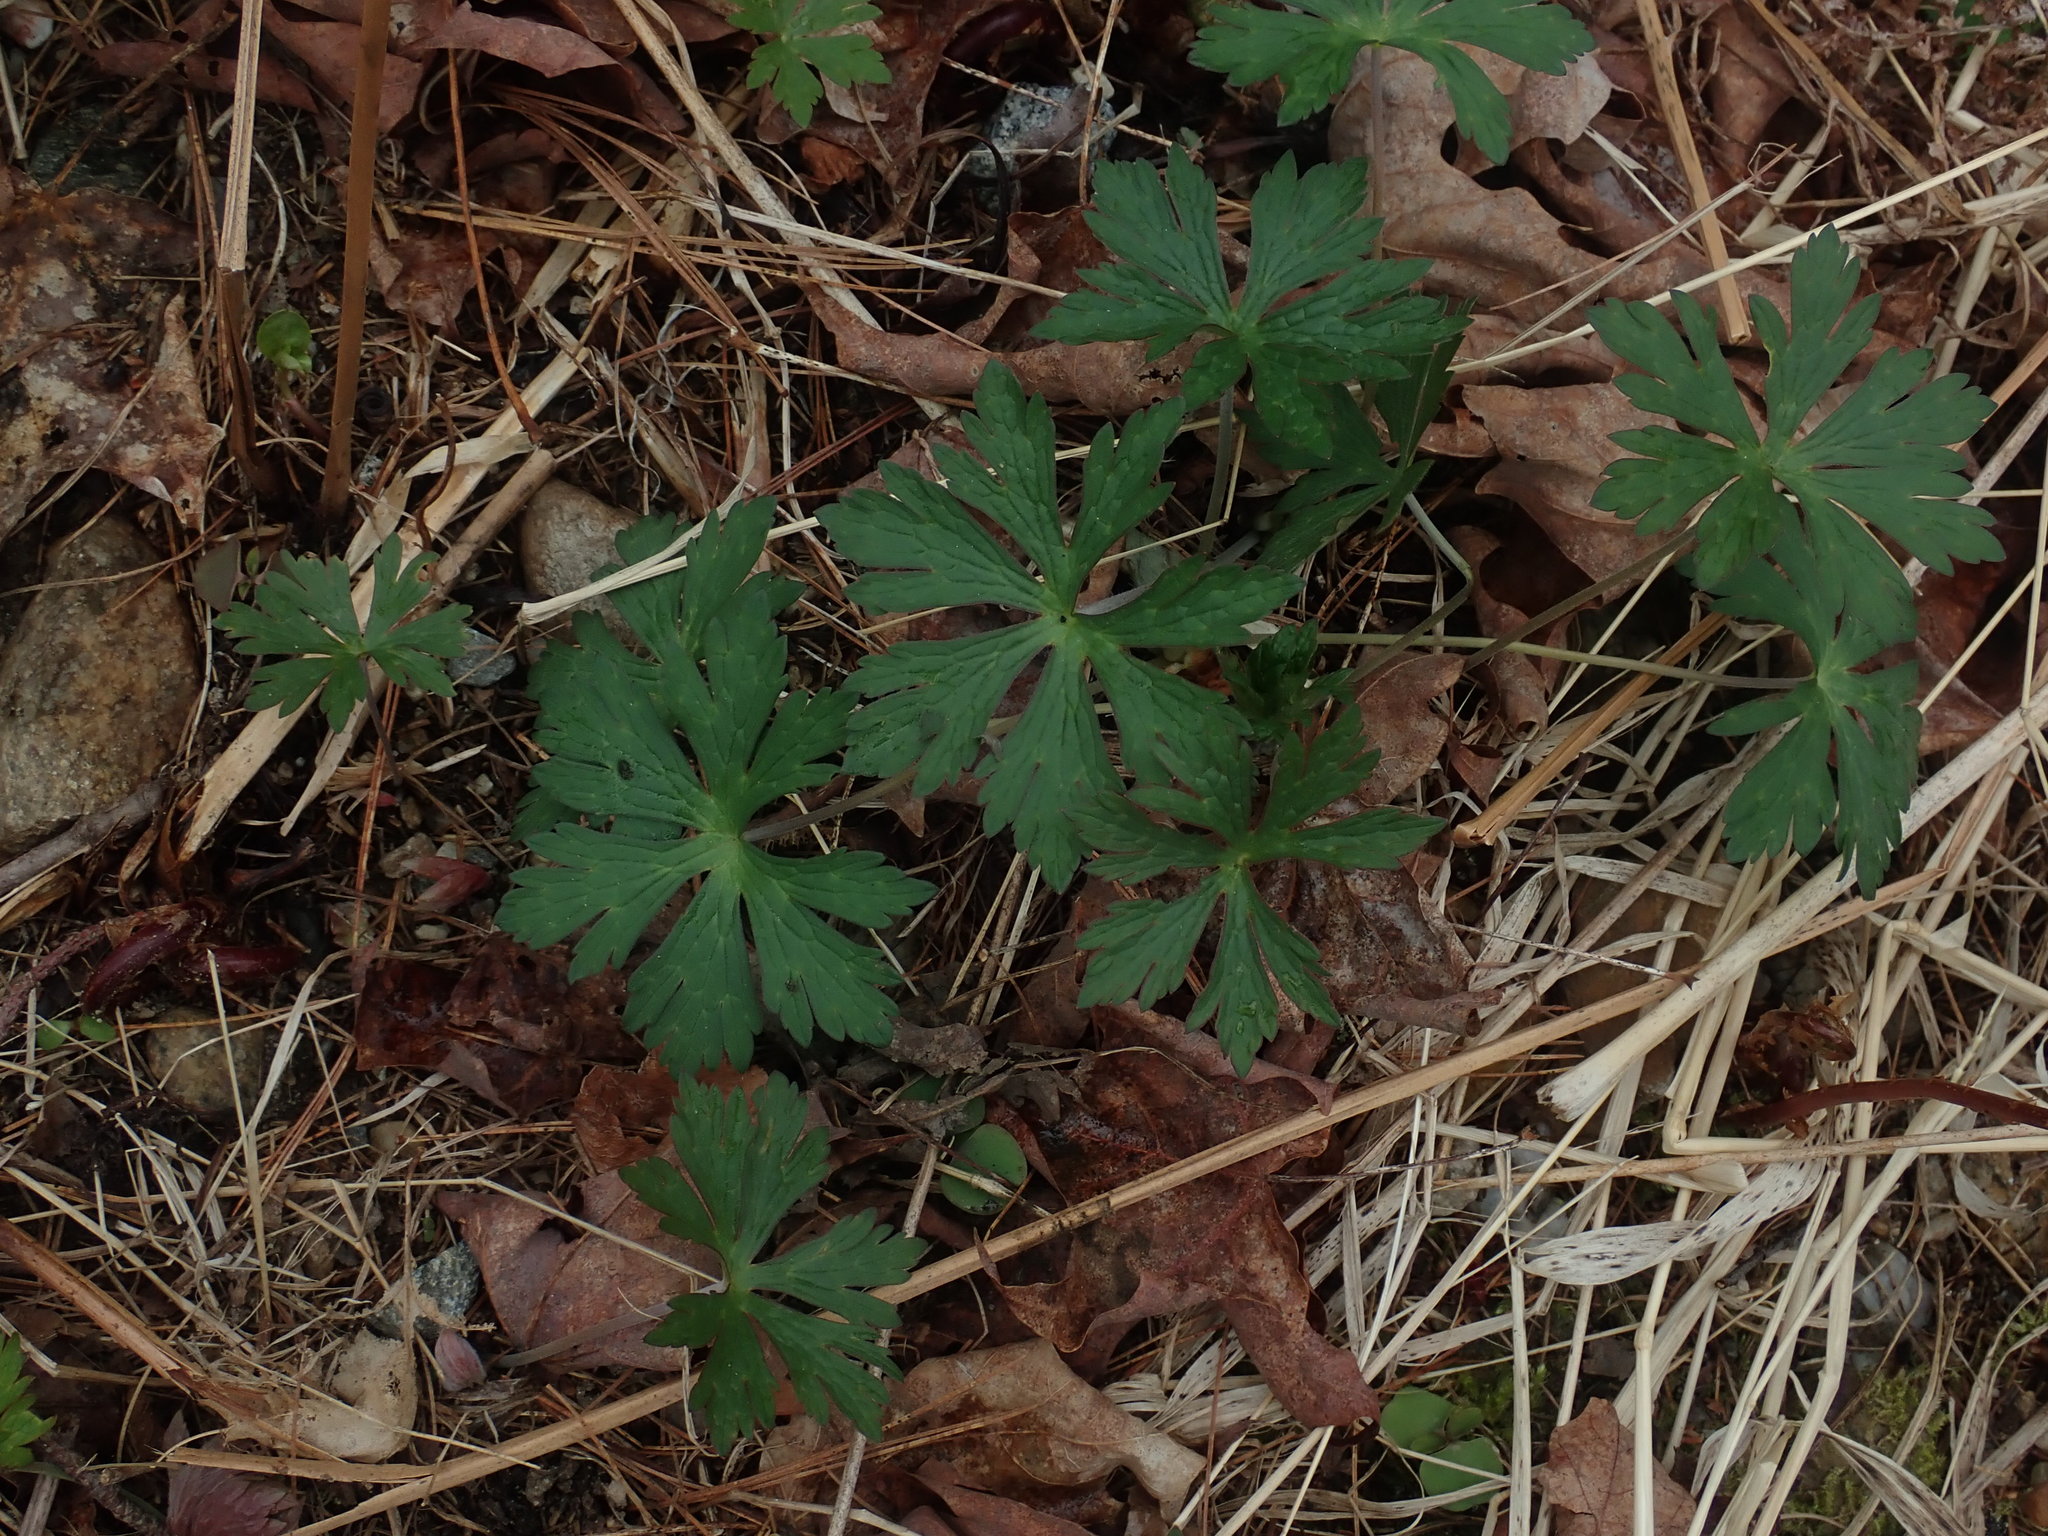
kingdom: Plantae
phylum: Tracheophyta
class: Magnoliopsida
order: Geraniales
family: Geraniaceae
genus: Geranium
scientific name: Geranium maculatum
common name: Spotted geranium
